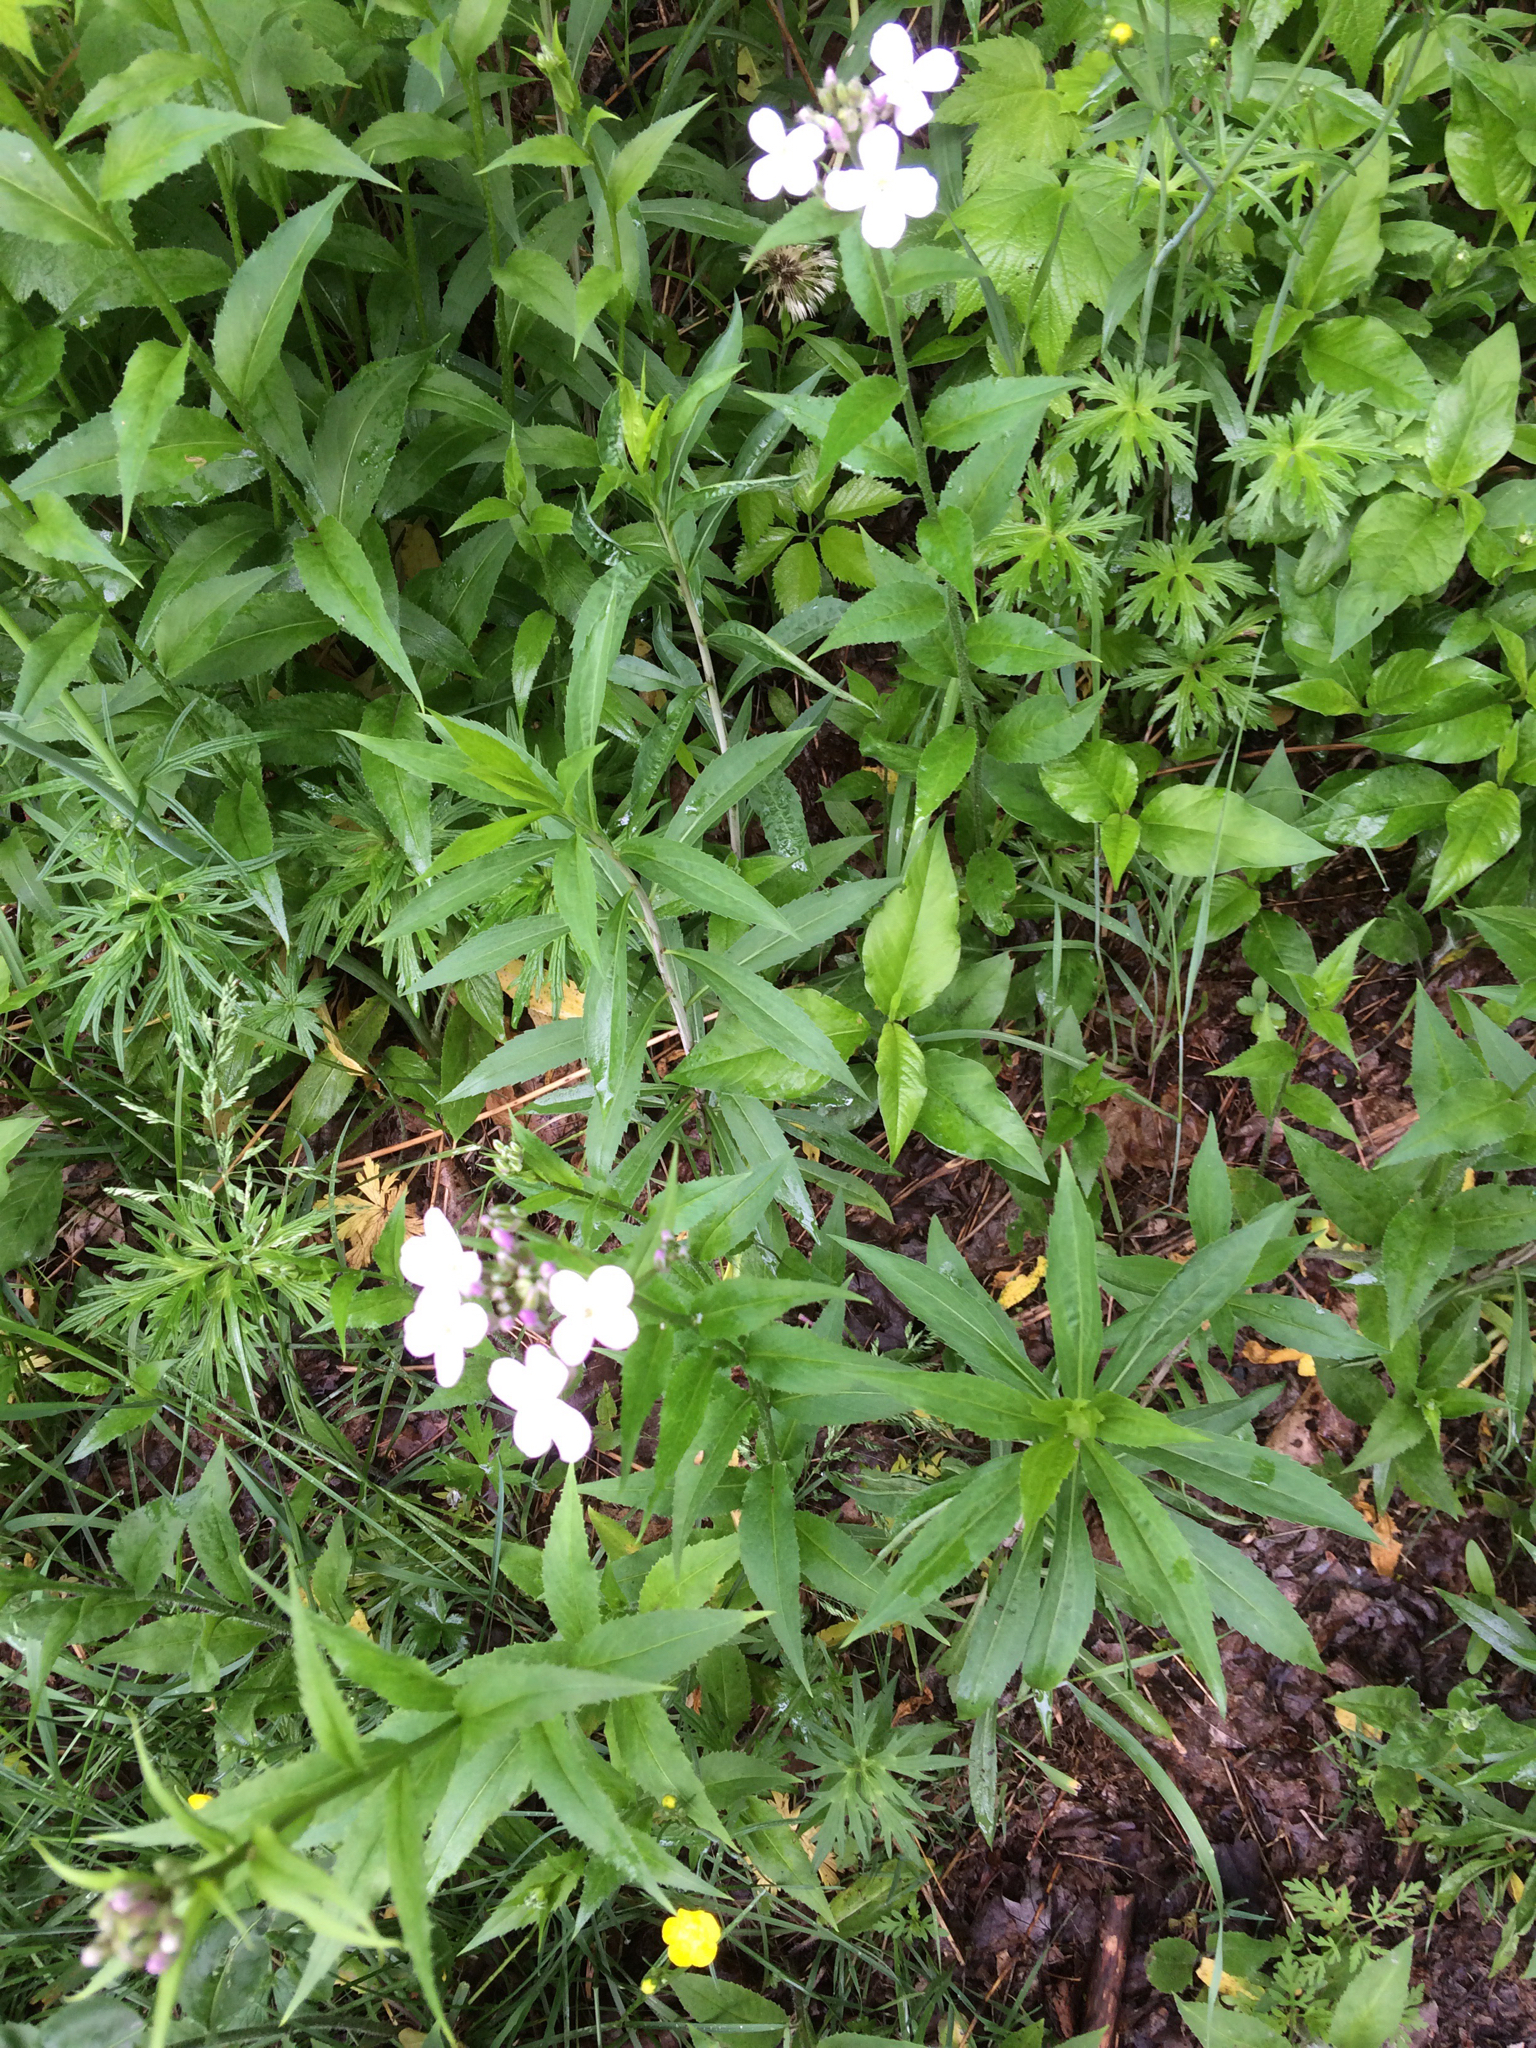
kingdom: Plantae
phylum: Tracheophyta
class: Magnoliopsida
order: Brassicales
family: Brassicaceae
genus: Hesperis
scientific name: Hesperis matronalis
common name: Dame's-violet
